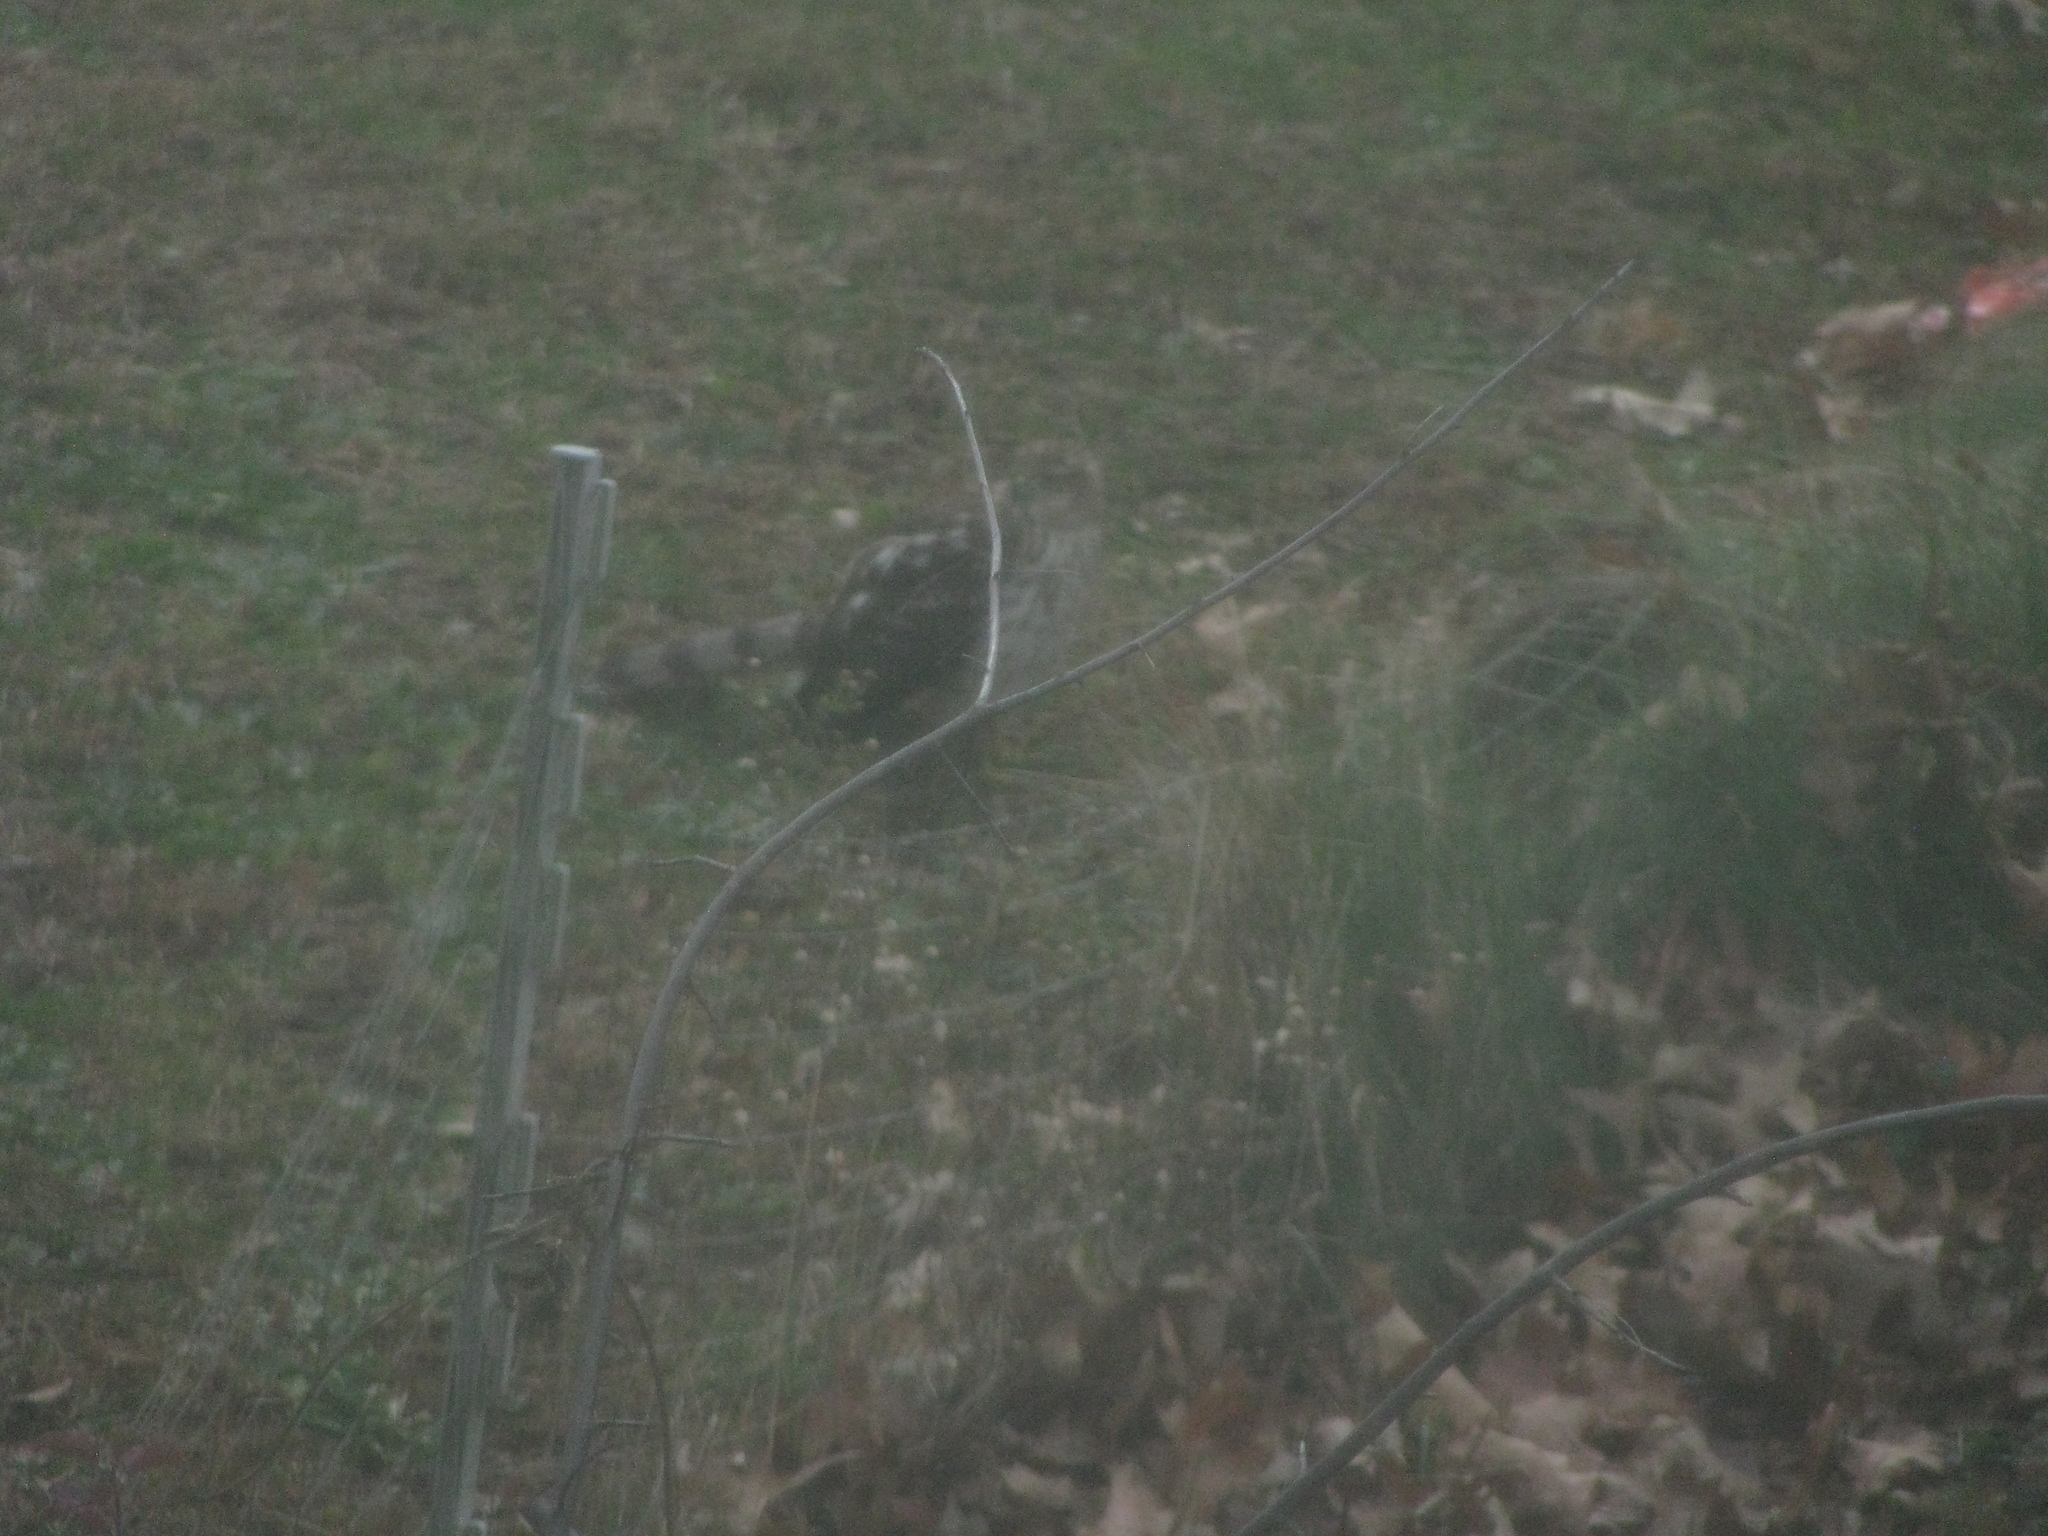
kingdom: Animalia
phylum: Chordata
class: Aves
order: Accipitriformes
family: Accipitridae
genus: Accipiter
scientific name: Accipiter cooperii
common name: Cooper's hawk
